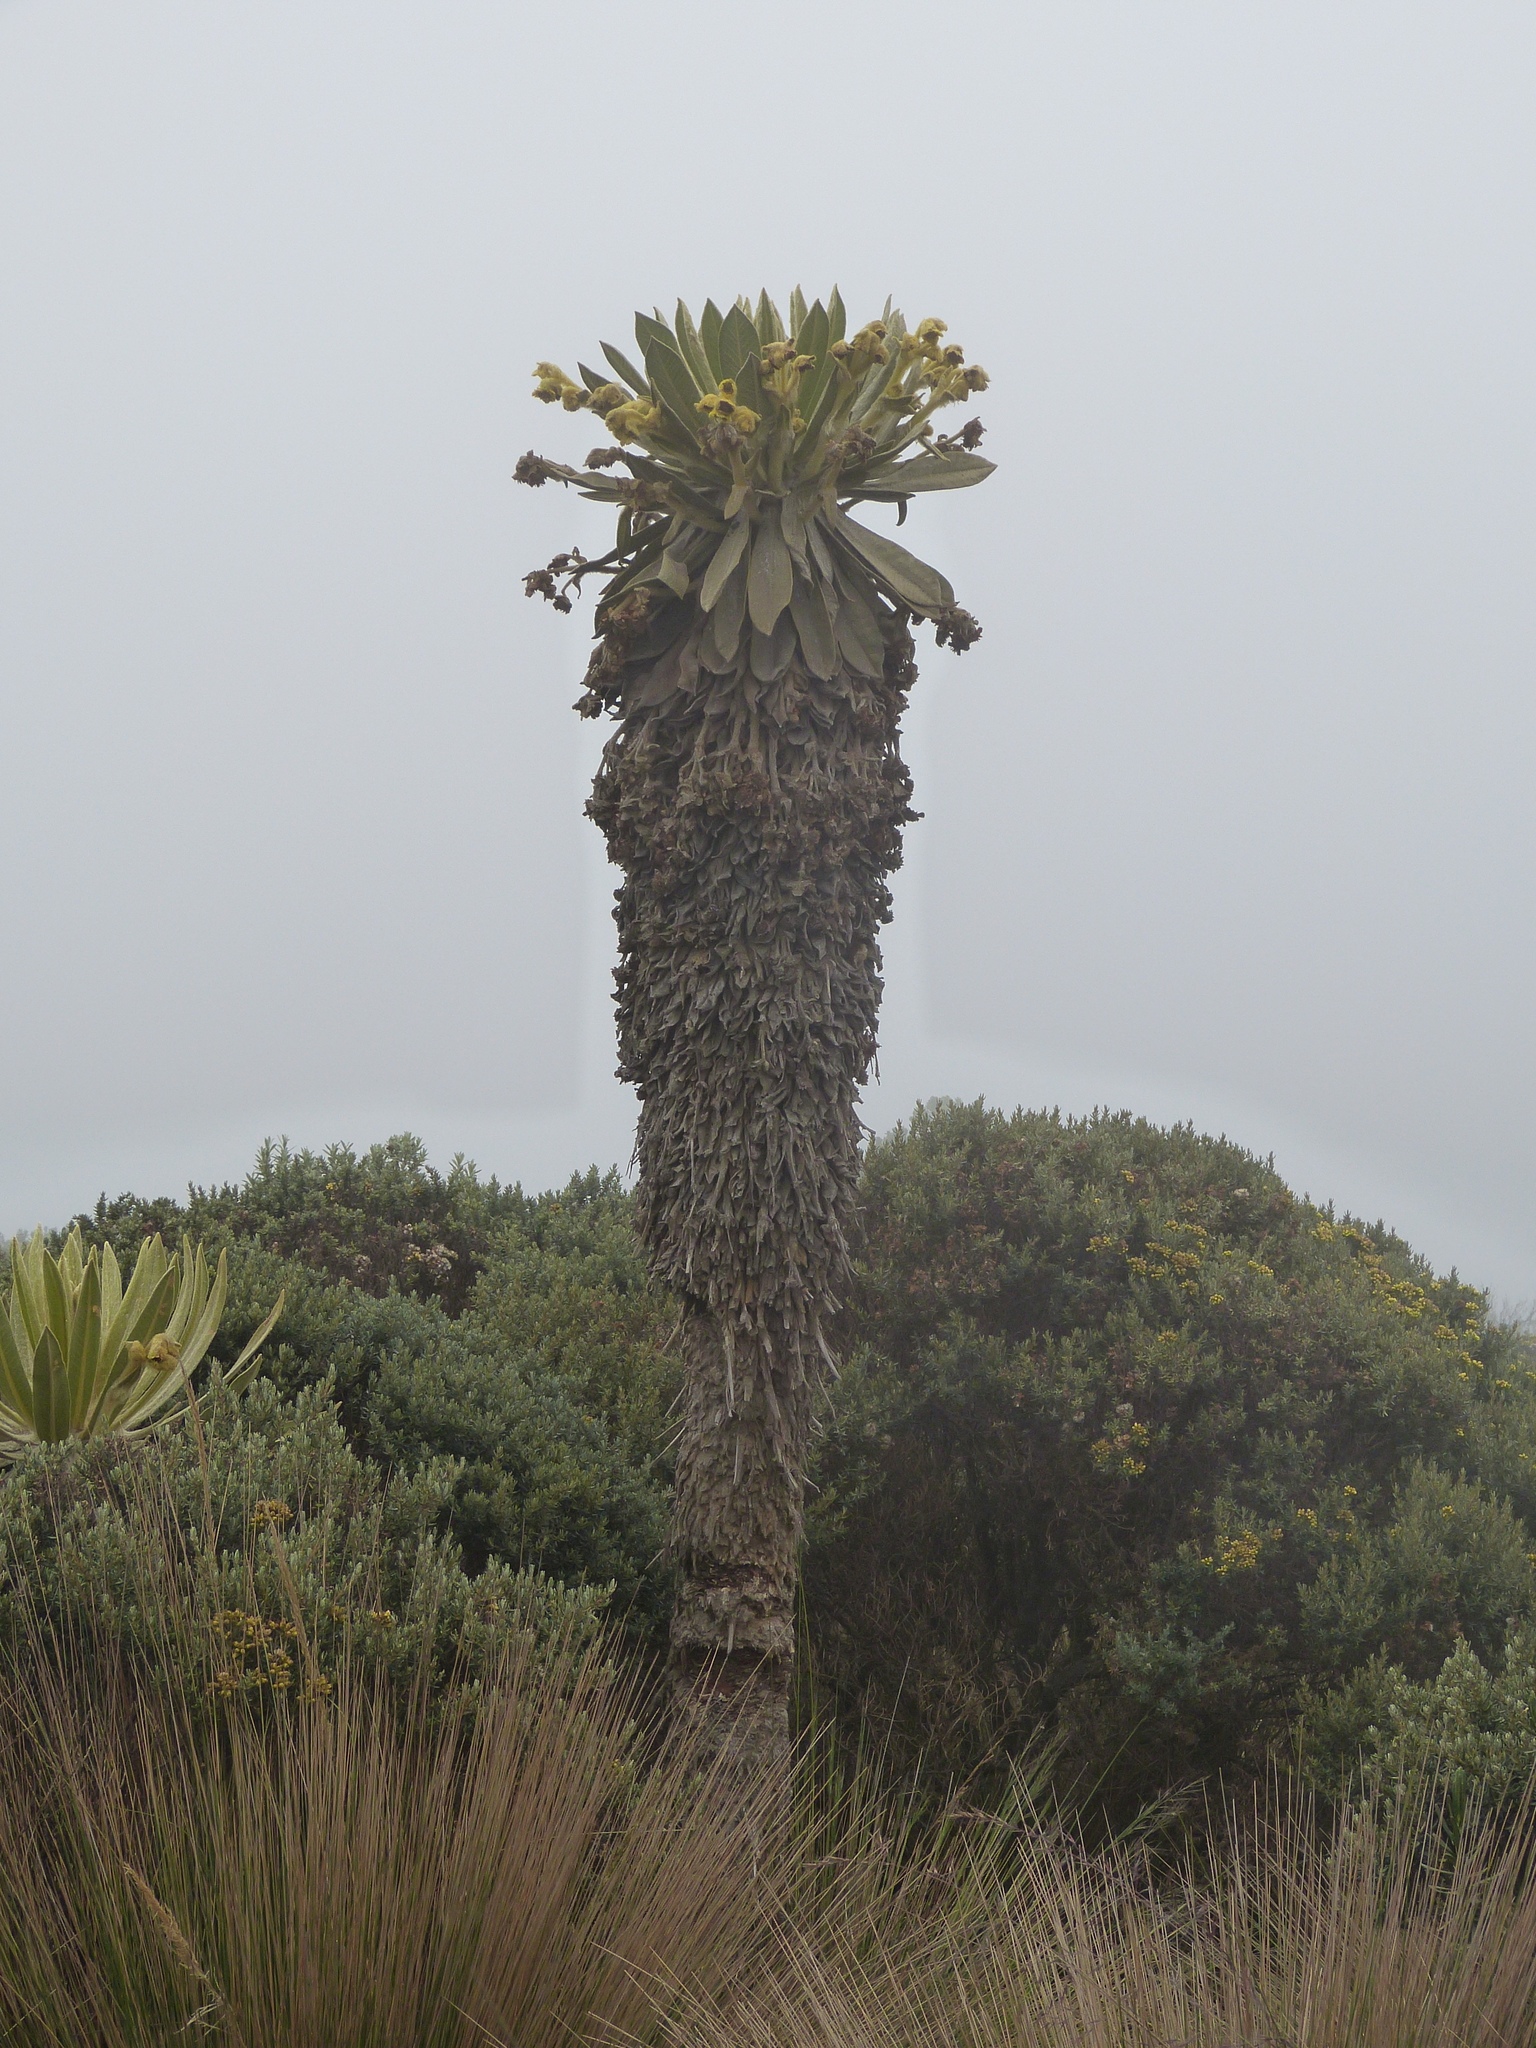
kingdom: Plantae
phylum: Tracheophyta
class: Magnoliopsida
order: Asterales
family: Asteraceae
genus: Espeletia
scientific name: Espeletia hartwegiana
